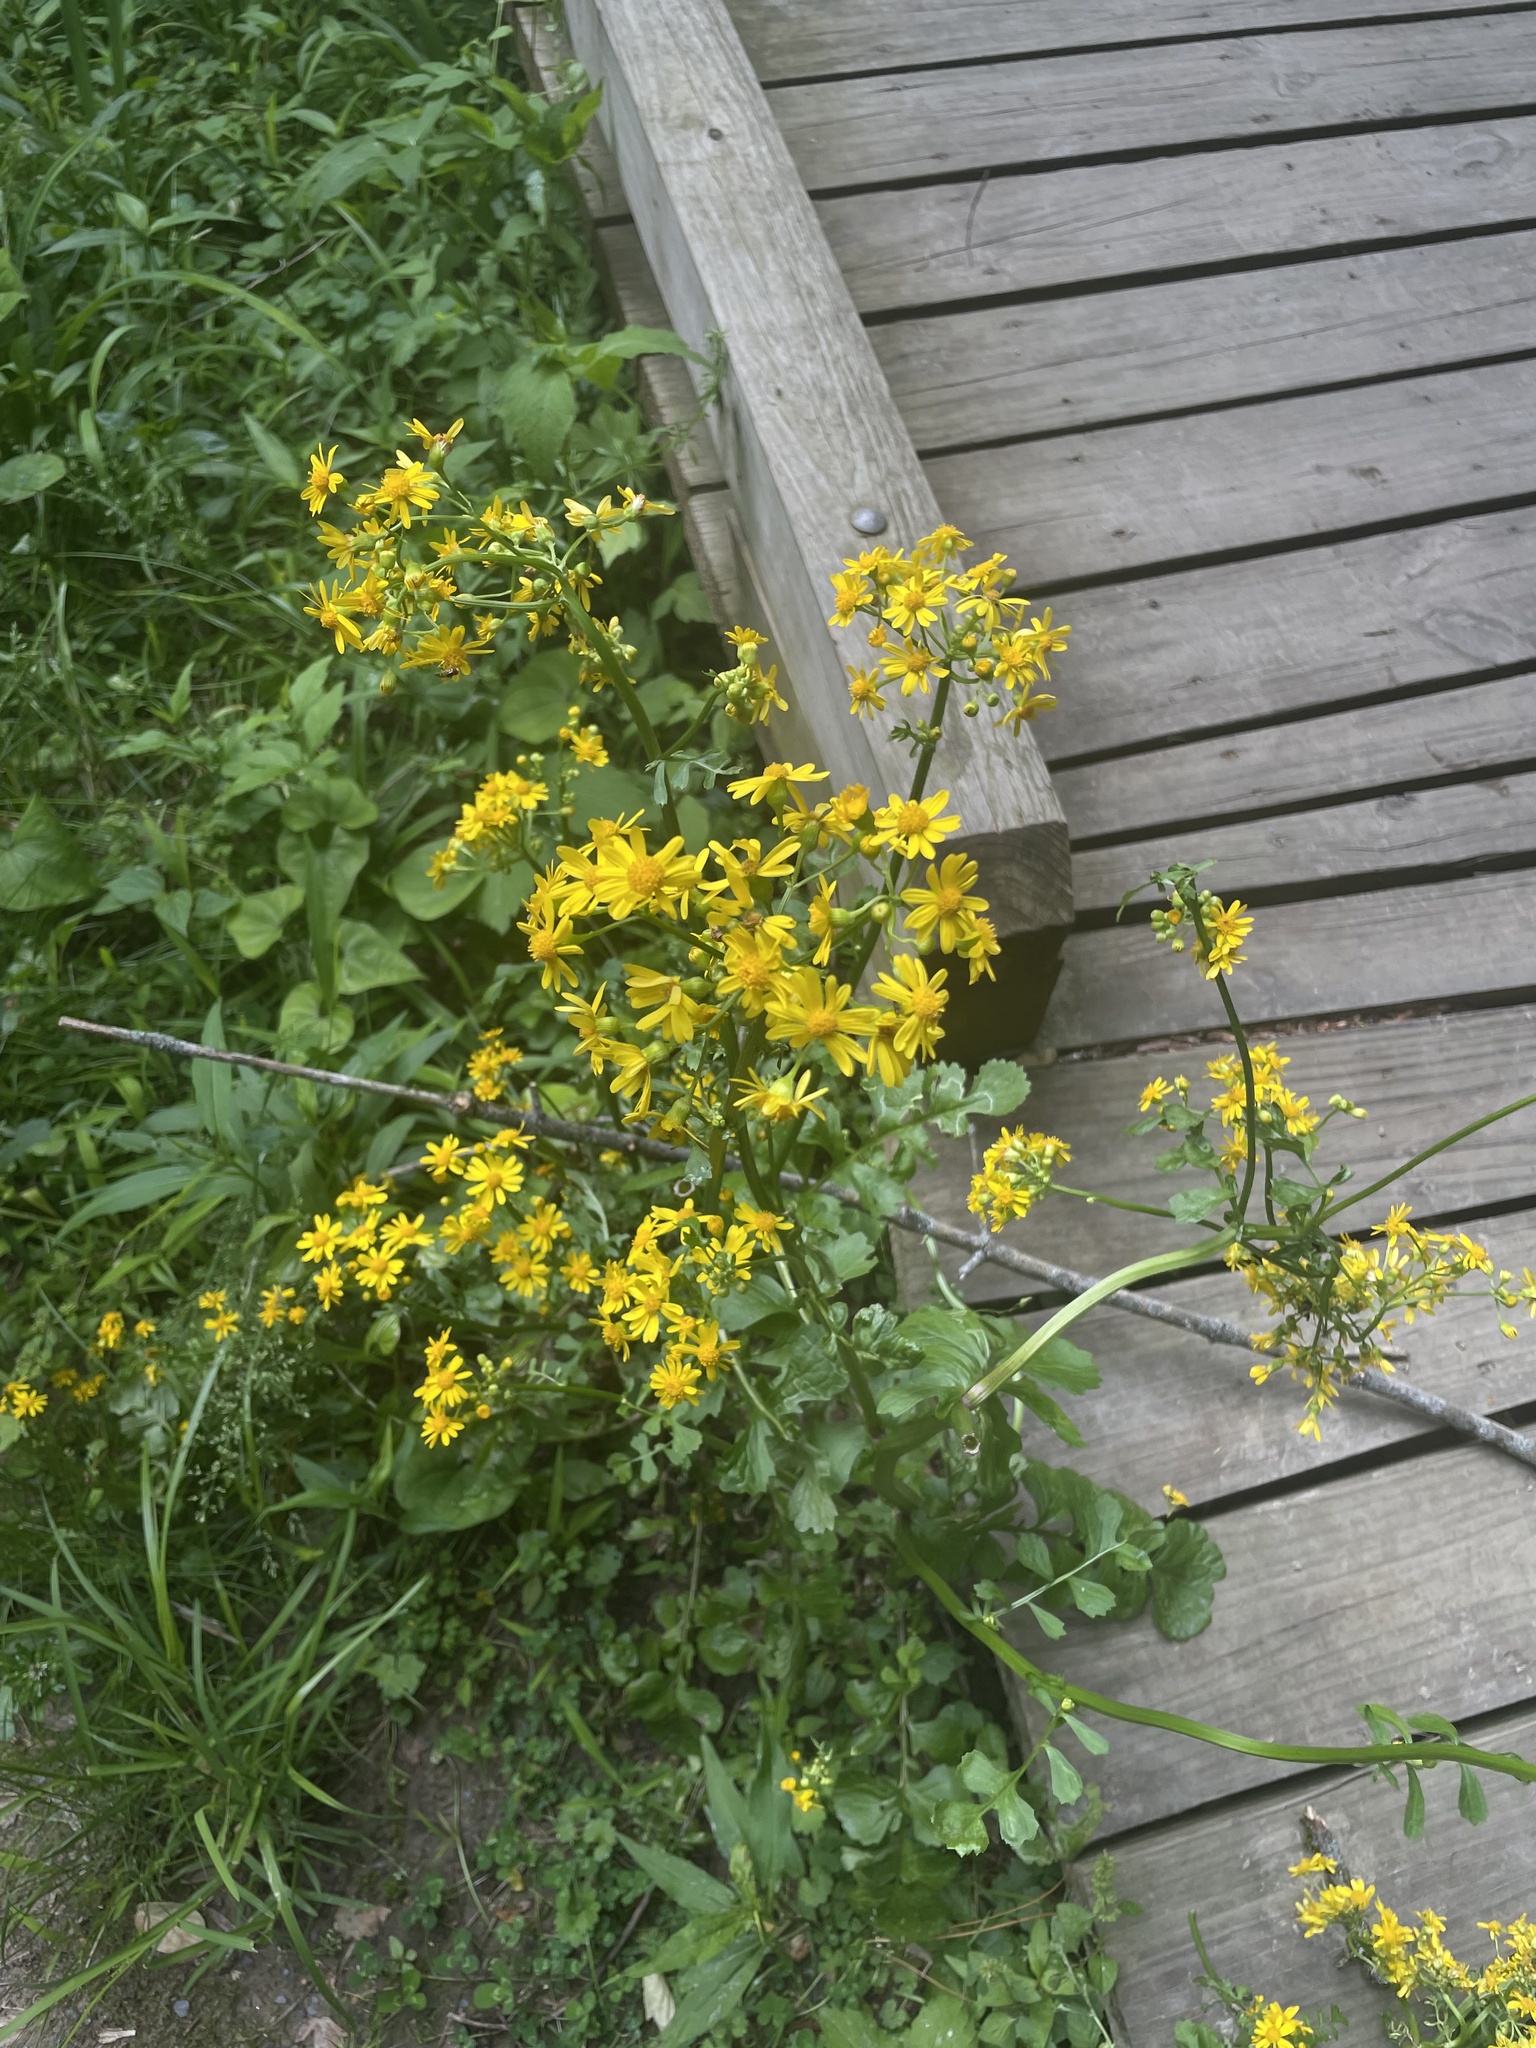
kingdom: Plantae
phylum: Tracheophyta
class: Magnoliopsida
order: Asterales
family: Asteraceae
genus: Packera
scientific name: Packera glabella
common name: Butterweed
